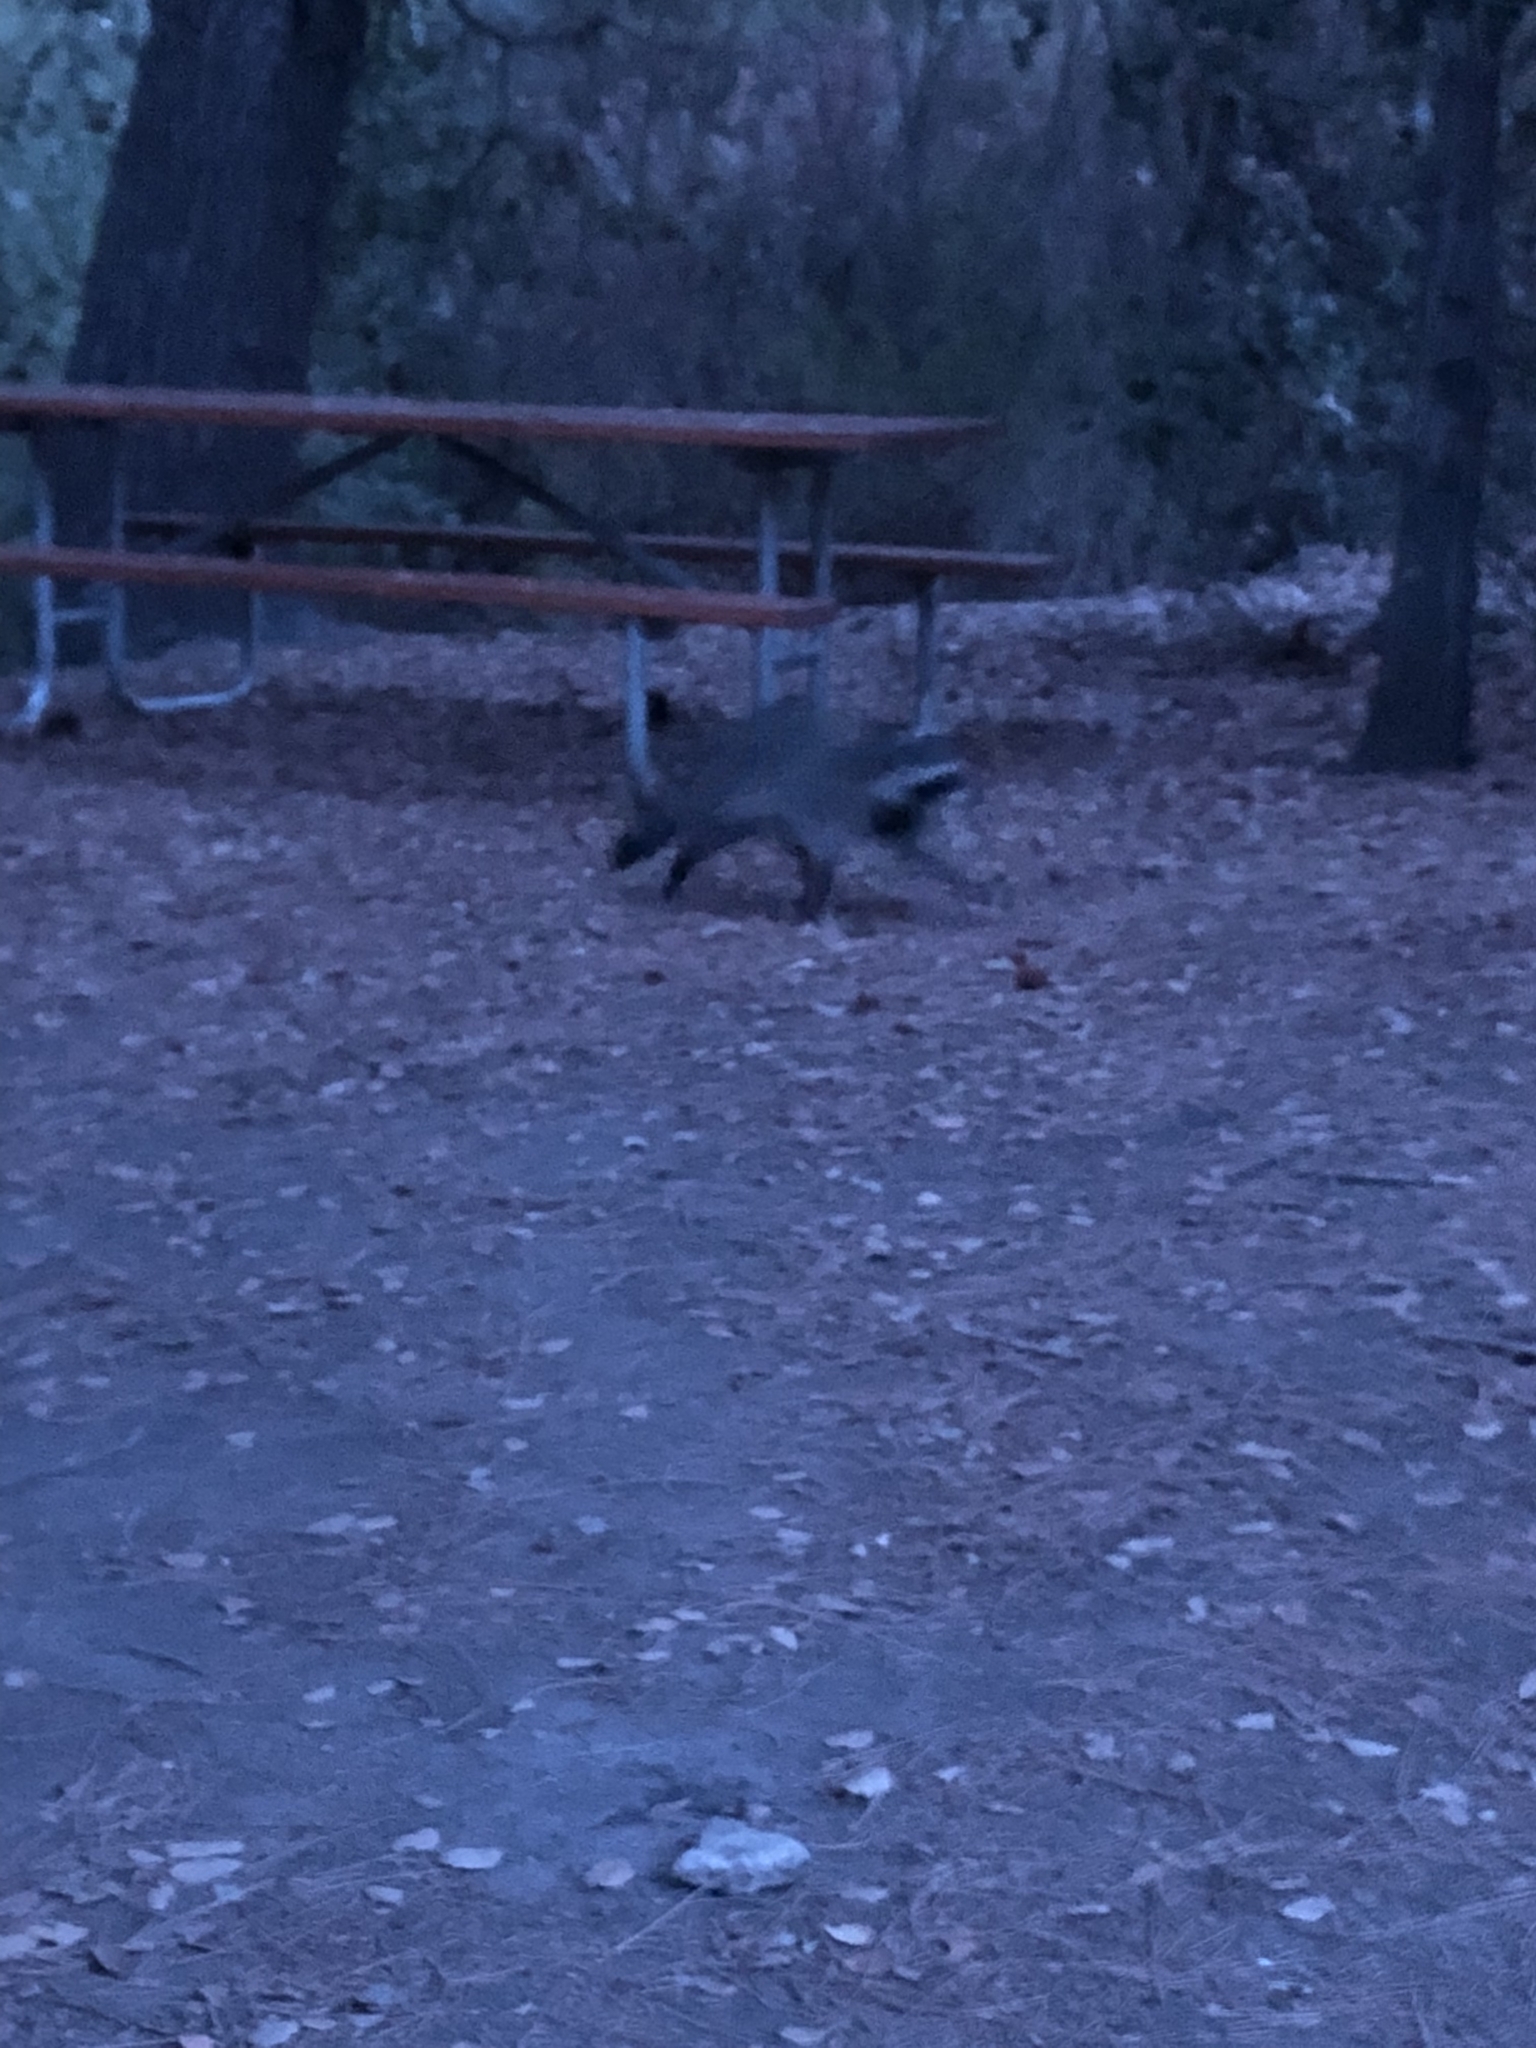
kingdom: Animalia
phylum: Chordata
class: Mammalia
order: Carnivora
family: Procyonidae
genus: Procyon
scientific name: Procyon lotor
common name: Raccoon
